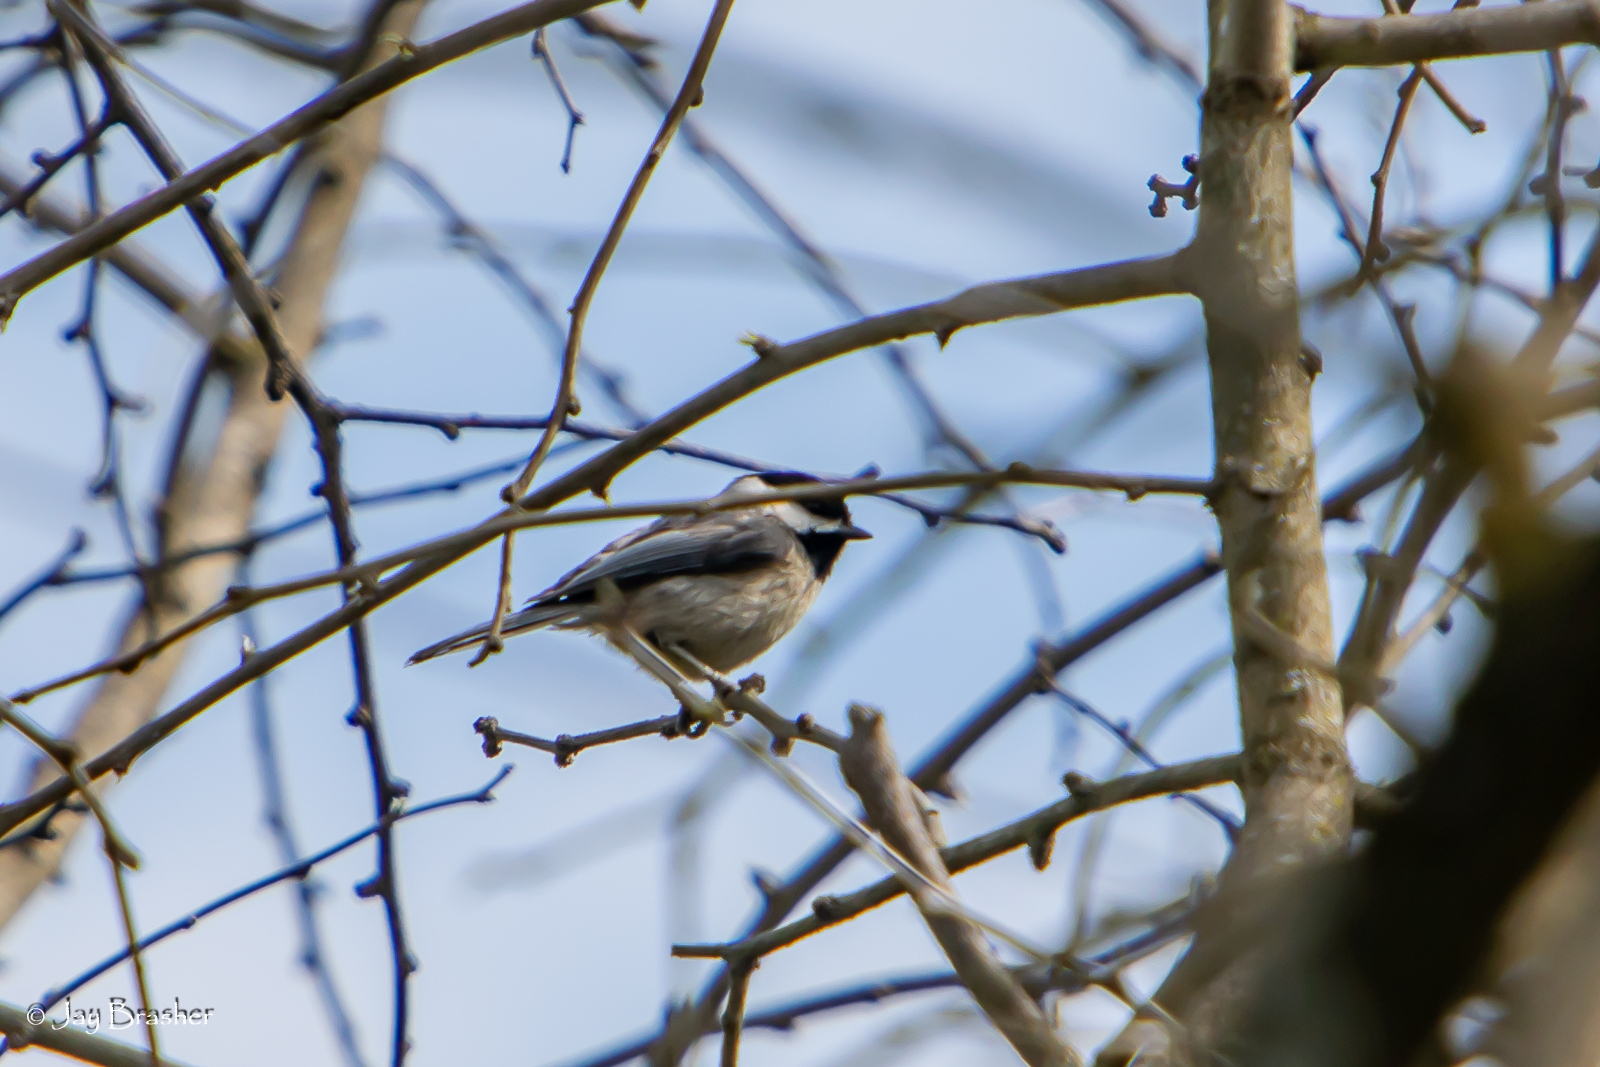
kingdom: Animalia
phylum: Chordata
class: Aves
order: Passeriformes
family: Paridae
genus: Poecile
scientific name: Poecile carolinensis
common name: Carolina chickadee
